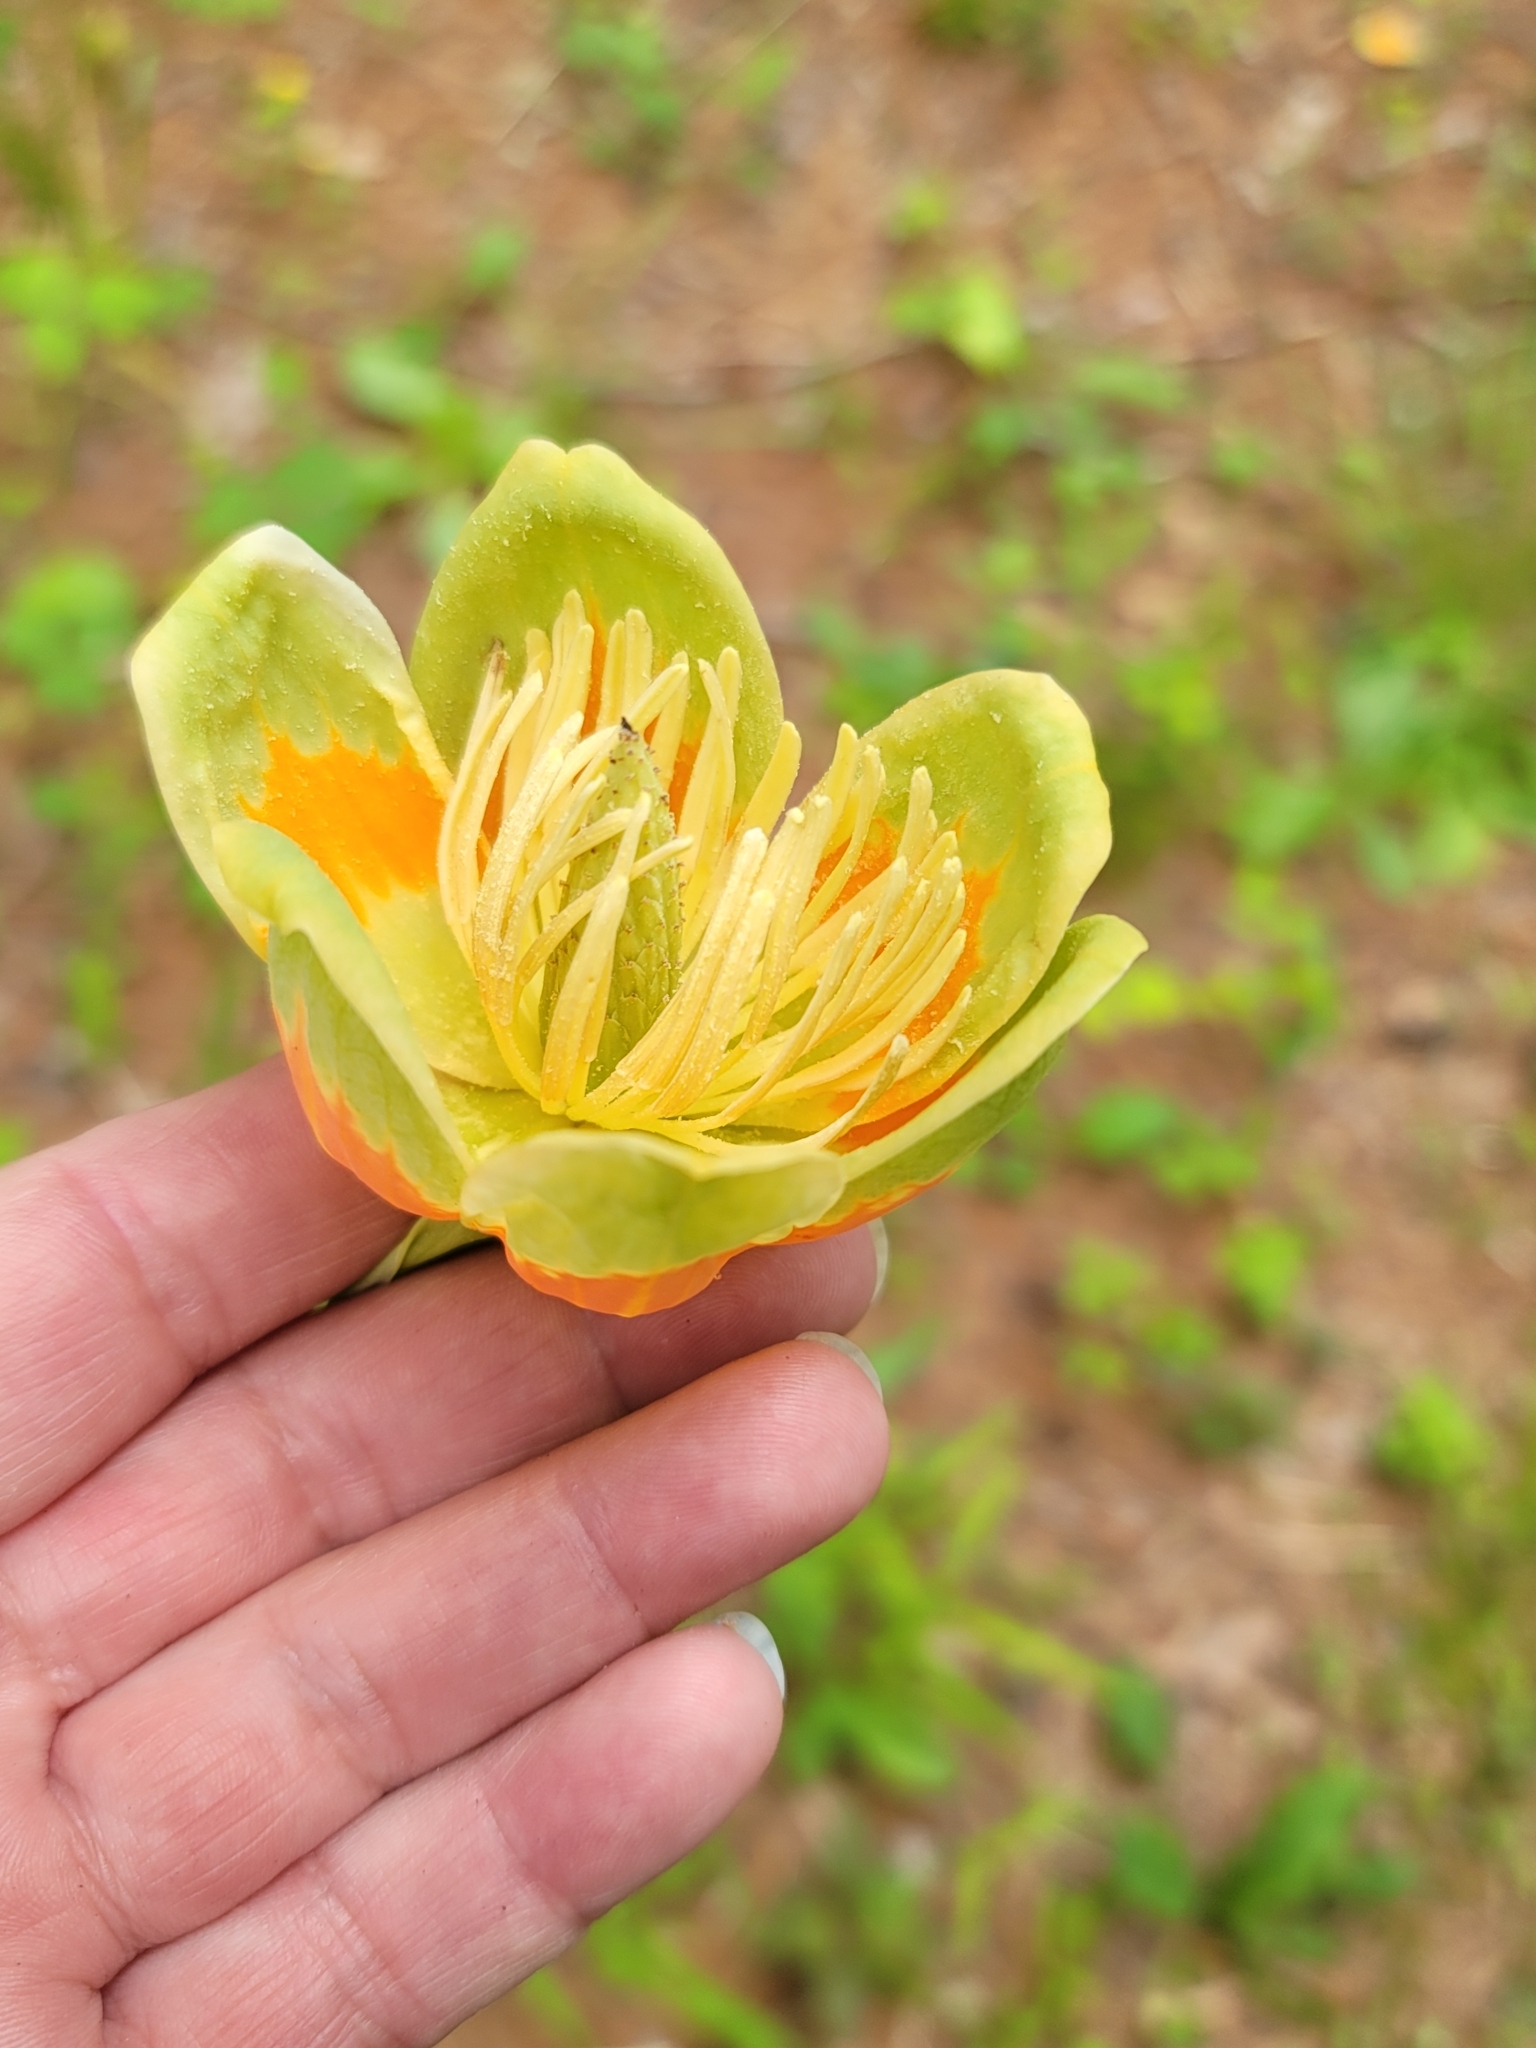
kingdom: Plantae
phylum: Tracheophyta
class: Magnoliopsida
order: Magnoliales
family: Magnoliaceae
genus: Liriodendron
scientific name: Liriodendron tulipifera
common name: Tulip tree
